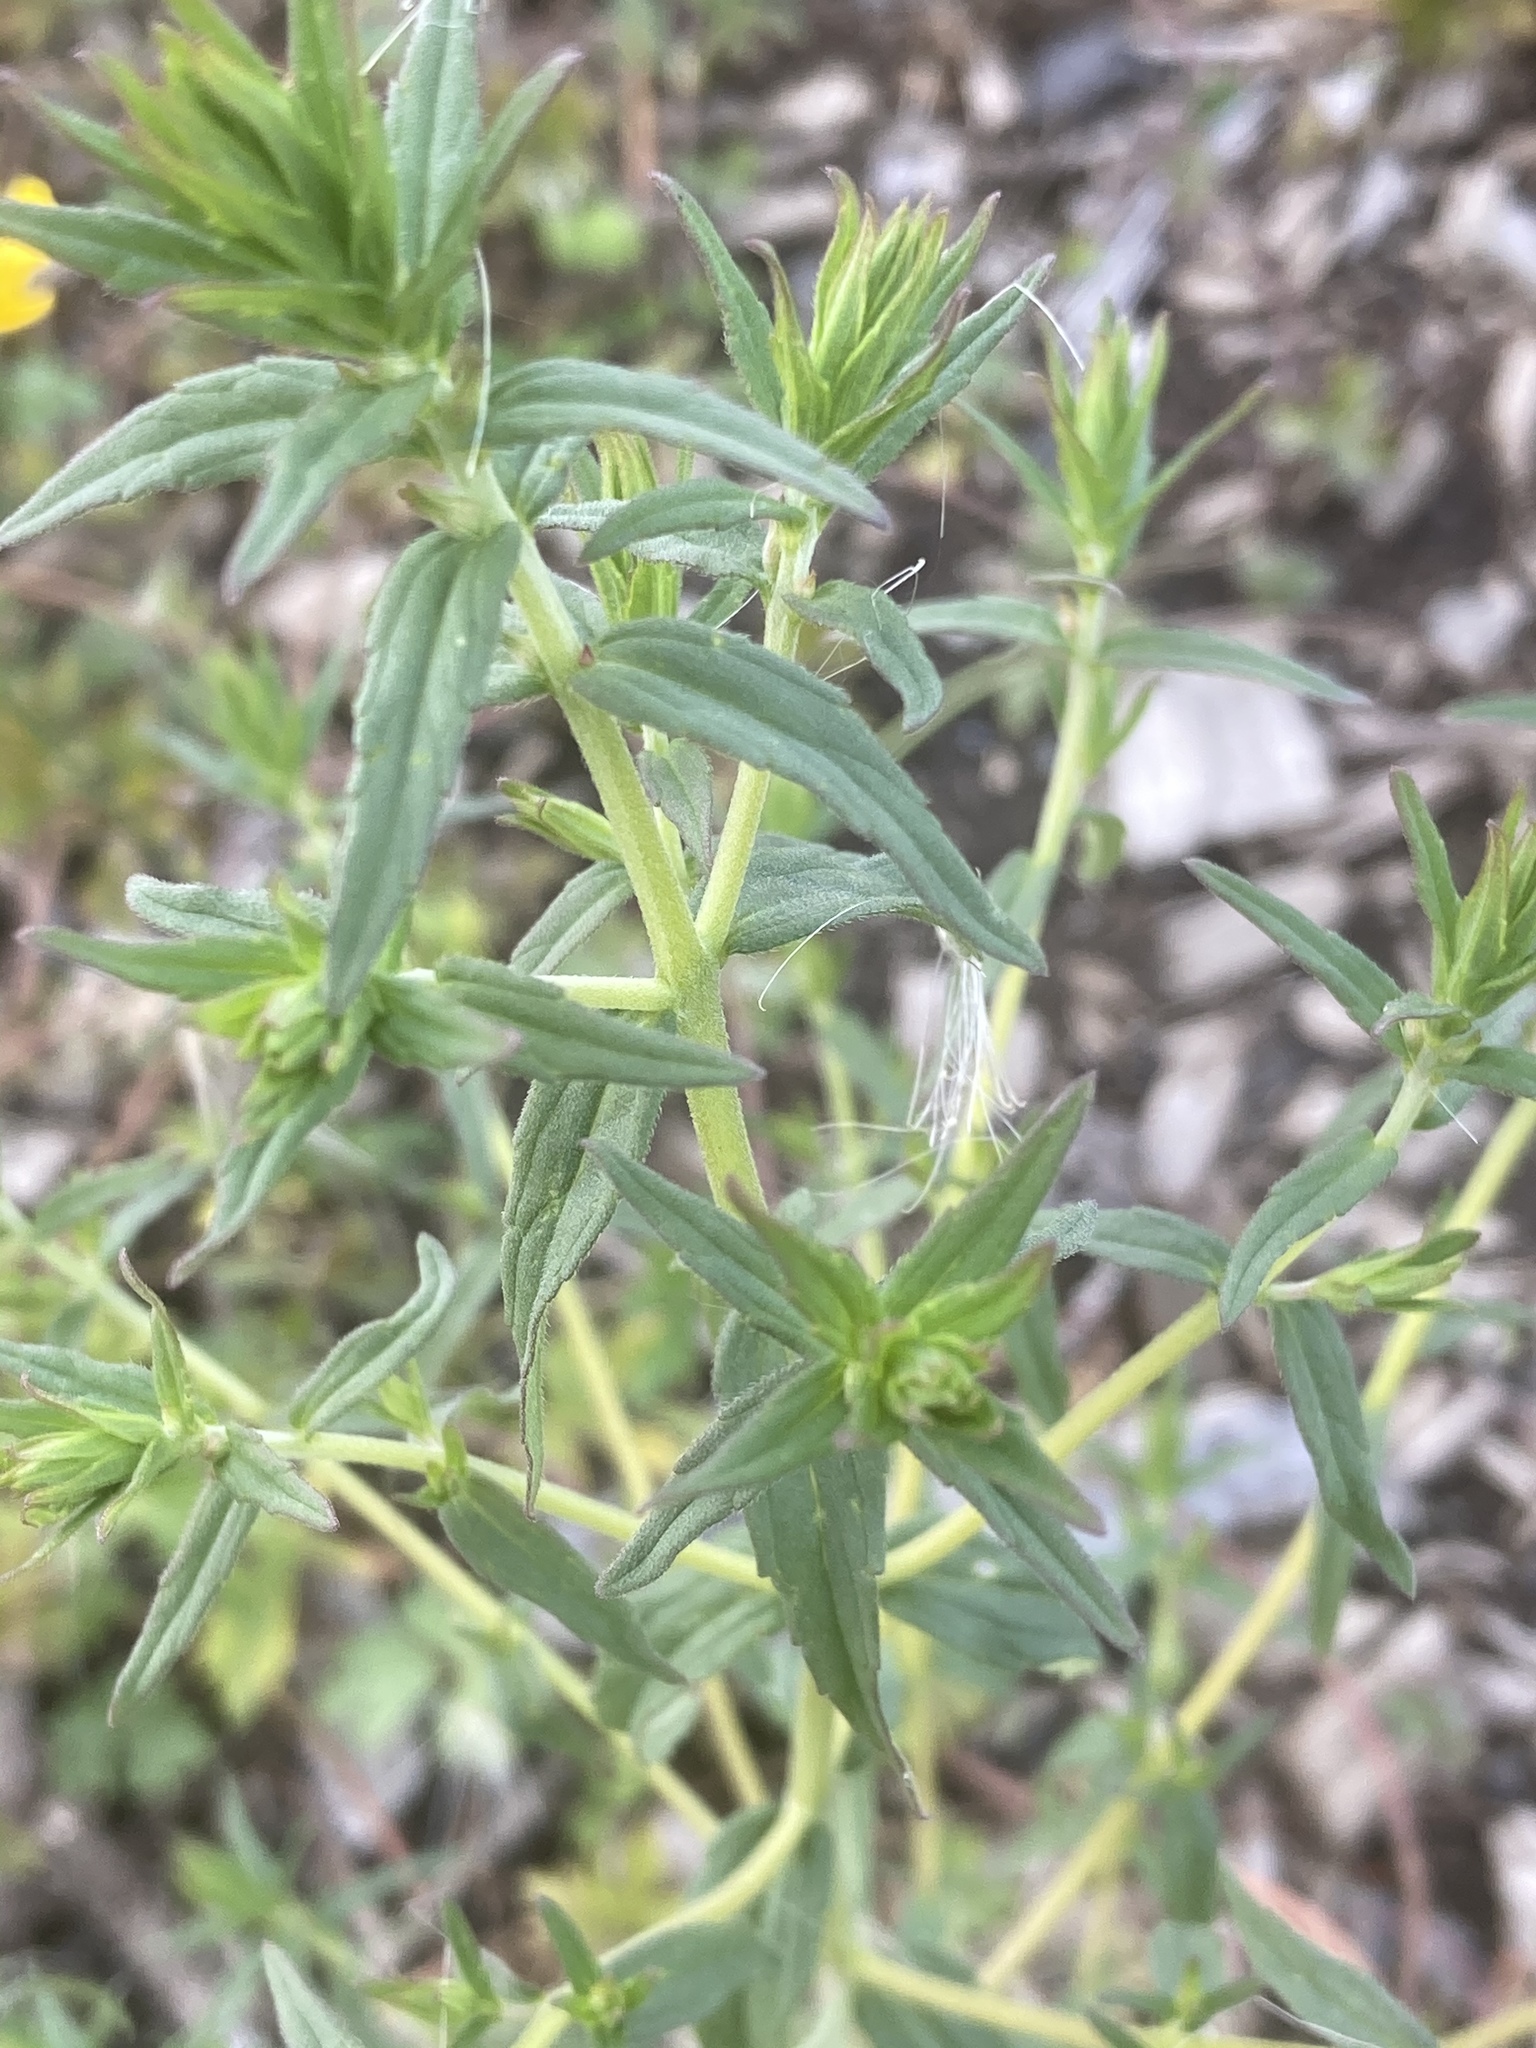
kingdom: Plantae
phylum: Tracheophyta
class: Magnoliopsida
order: Lamiales
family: Orobanchaceae
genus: Odontites
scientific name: Odontites vernus
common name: Red bartsia
